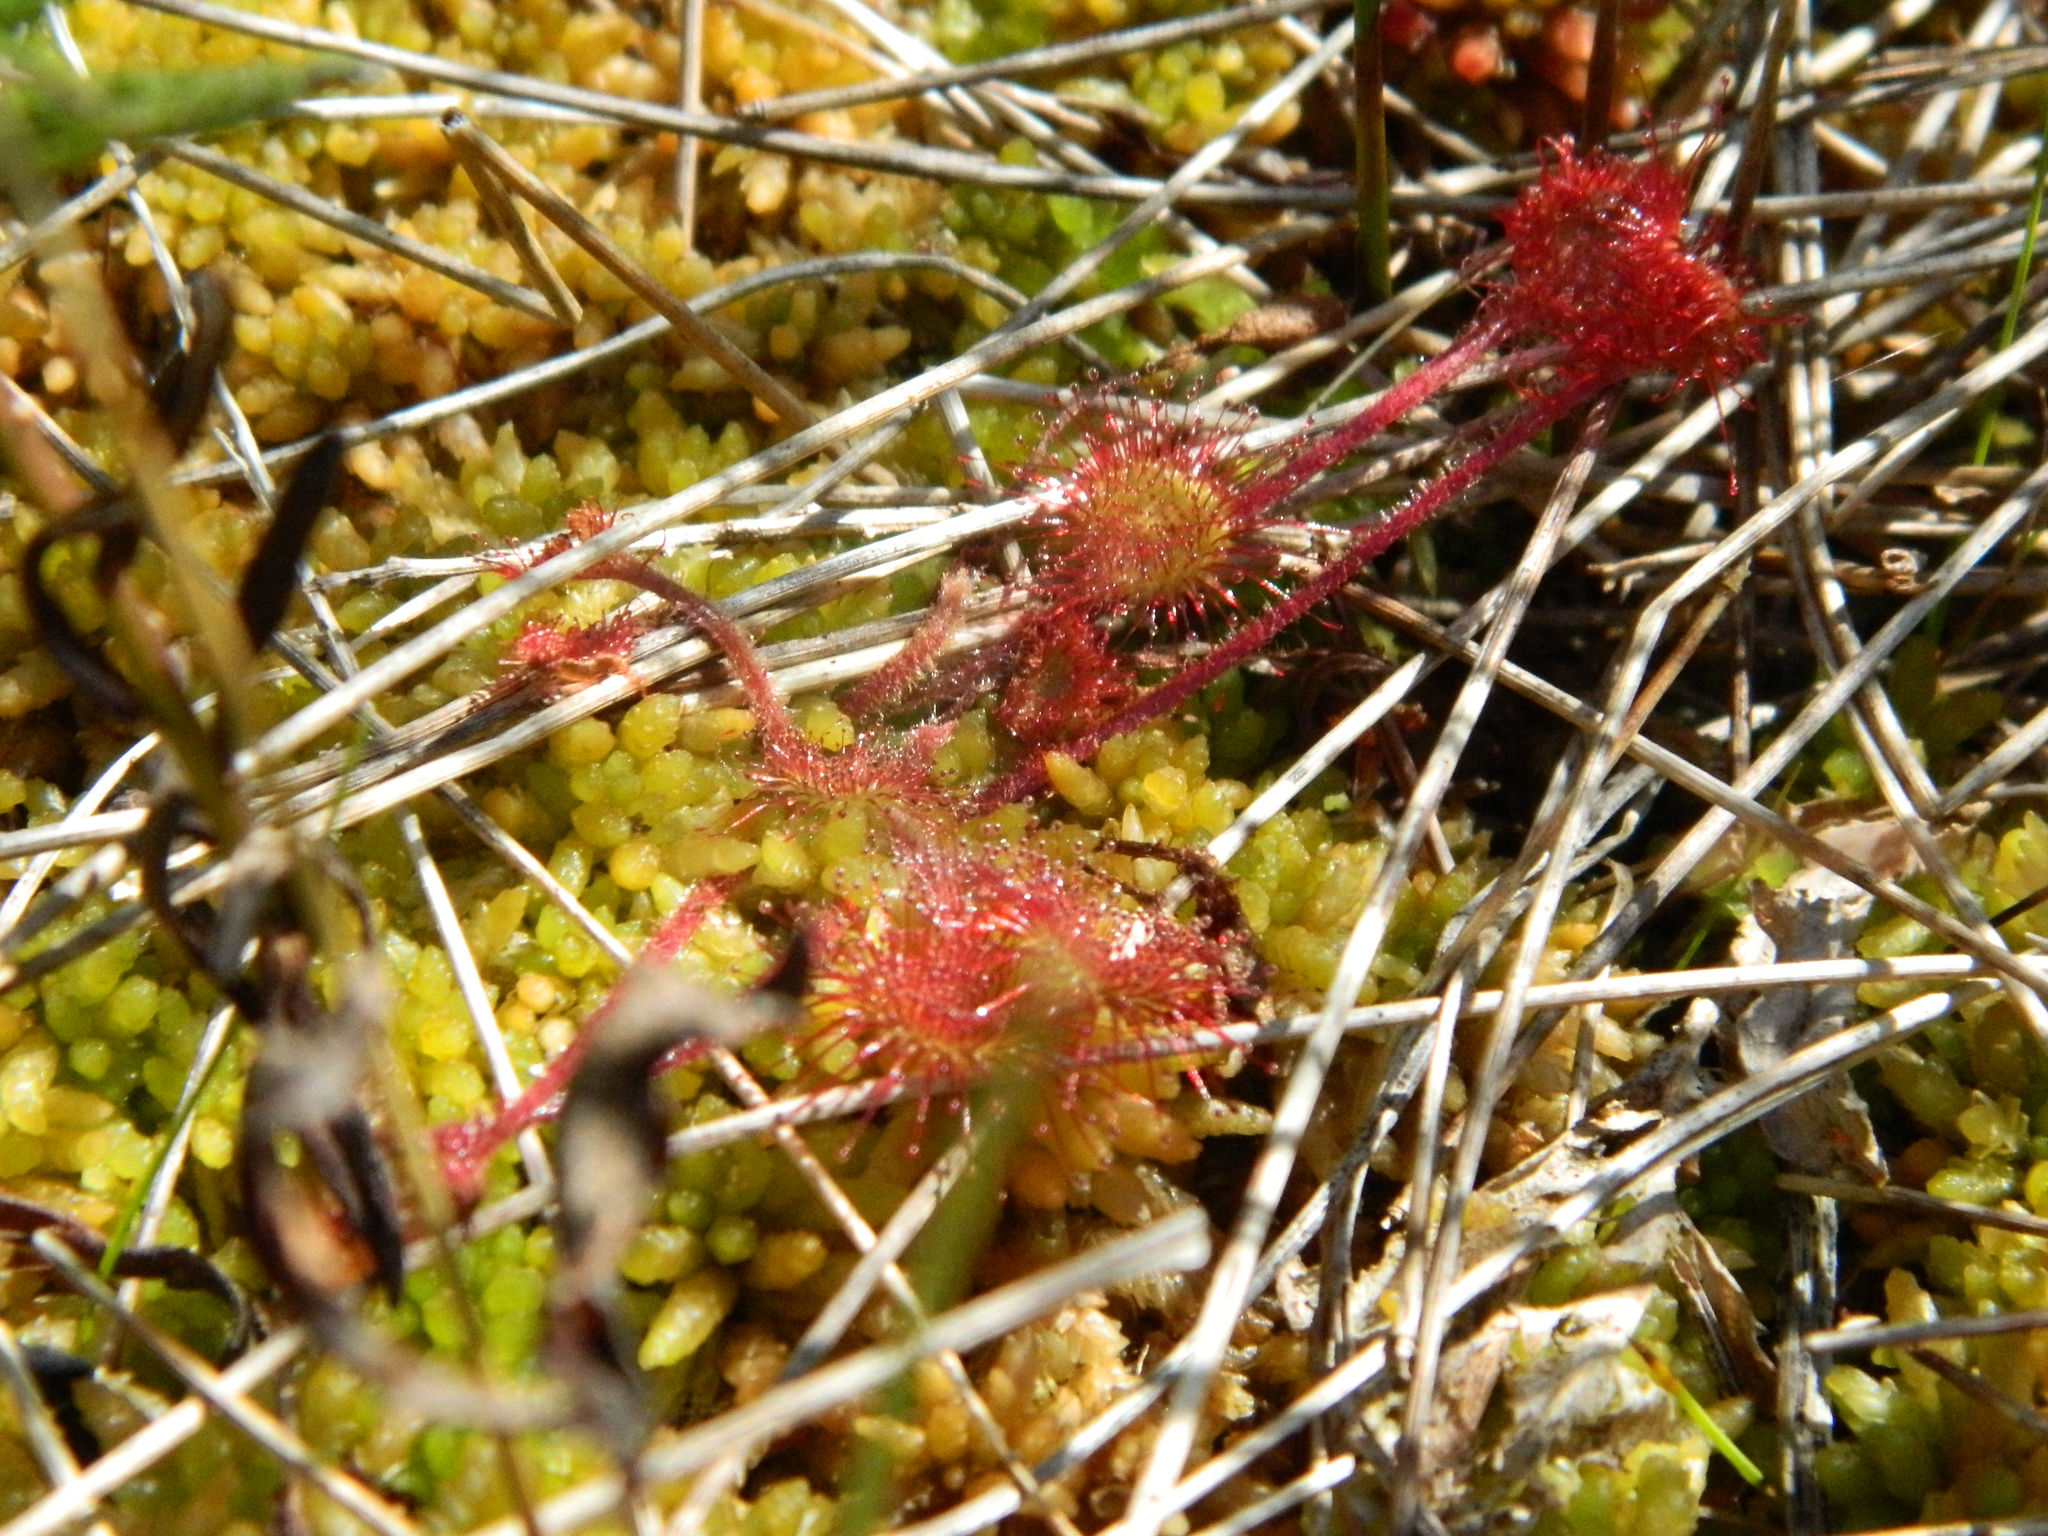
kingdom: Plantae
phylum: Tracheophyta
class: Magnoliopsida
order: Caryophyllales
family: Droseraceae
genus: Drosera
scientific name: Drosera rotundifolia
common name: Round-leaved sundew
